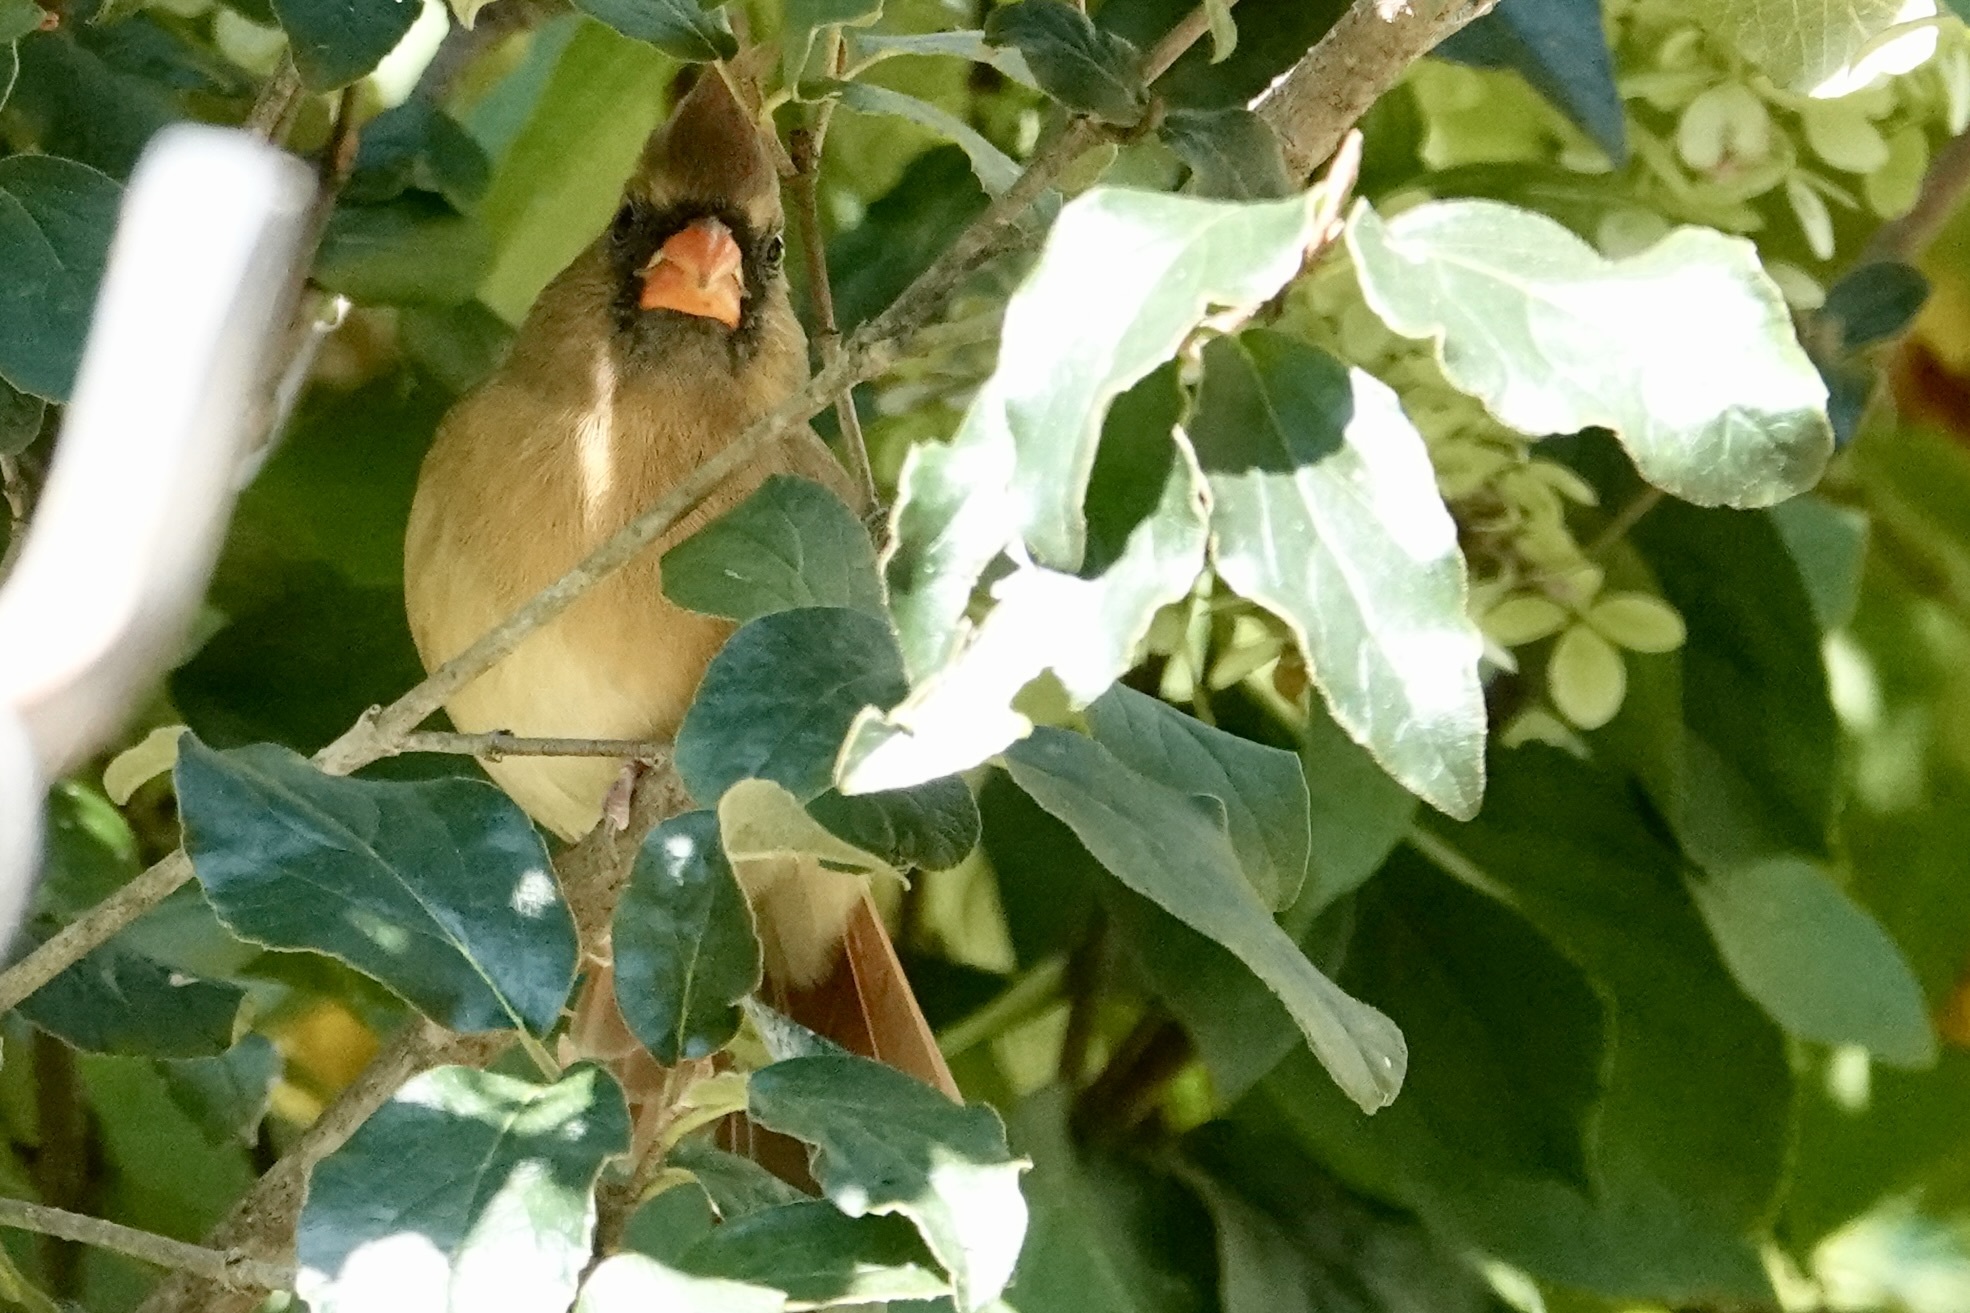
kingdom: Animalia
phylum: Chordata
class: Aves
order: Passeriformes
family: Cardinalidae
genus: Cardinalis
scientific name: Cardinalis cardinalis
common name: Northern cardinal
